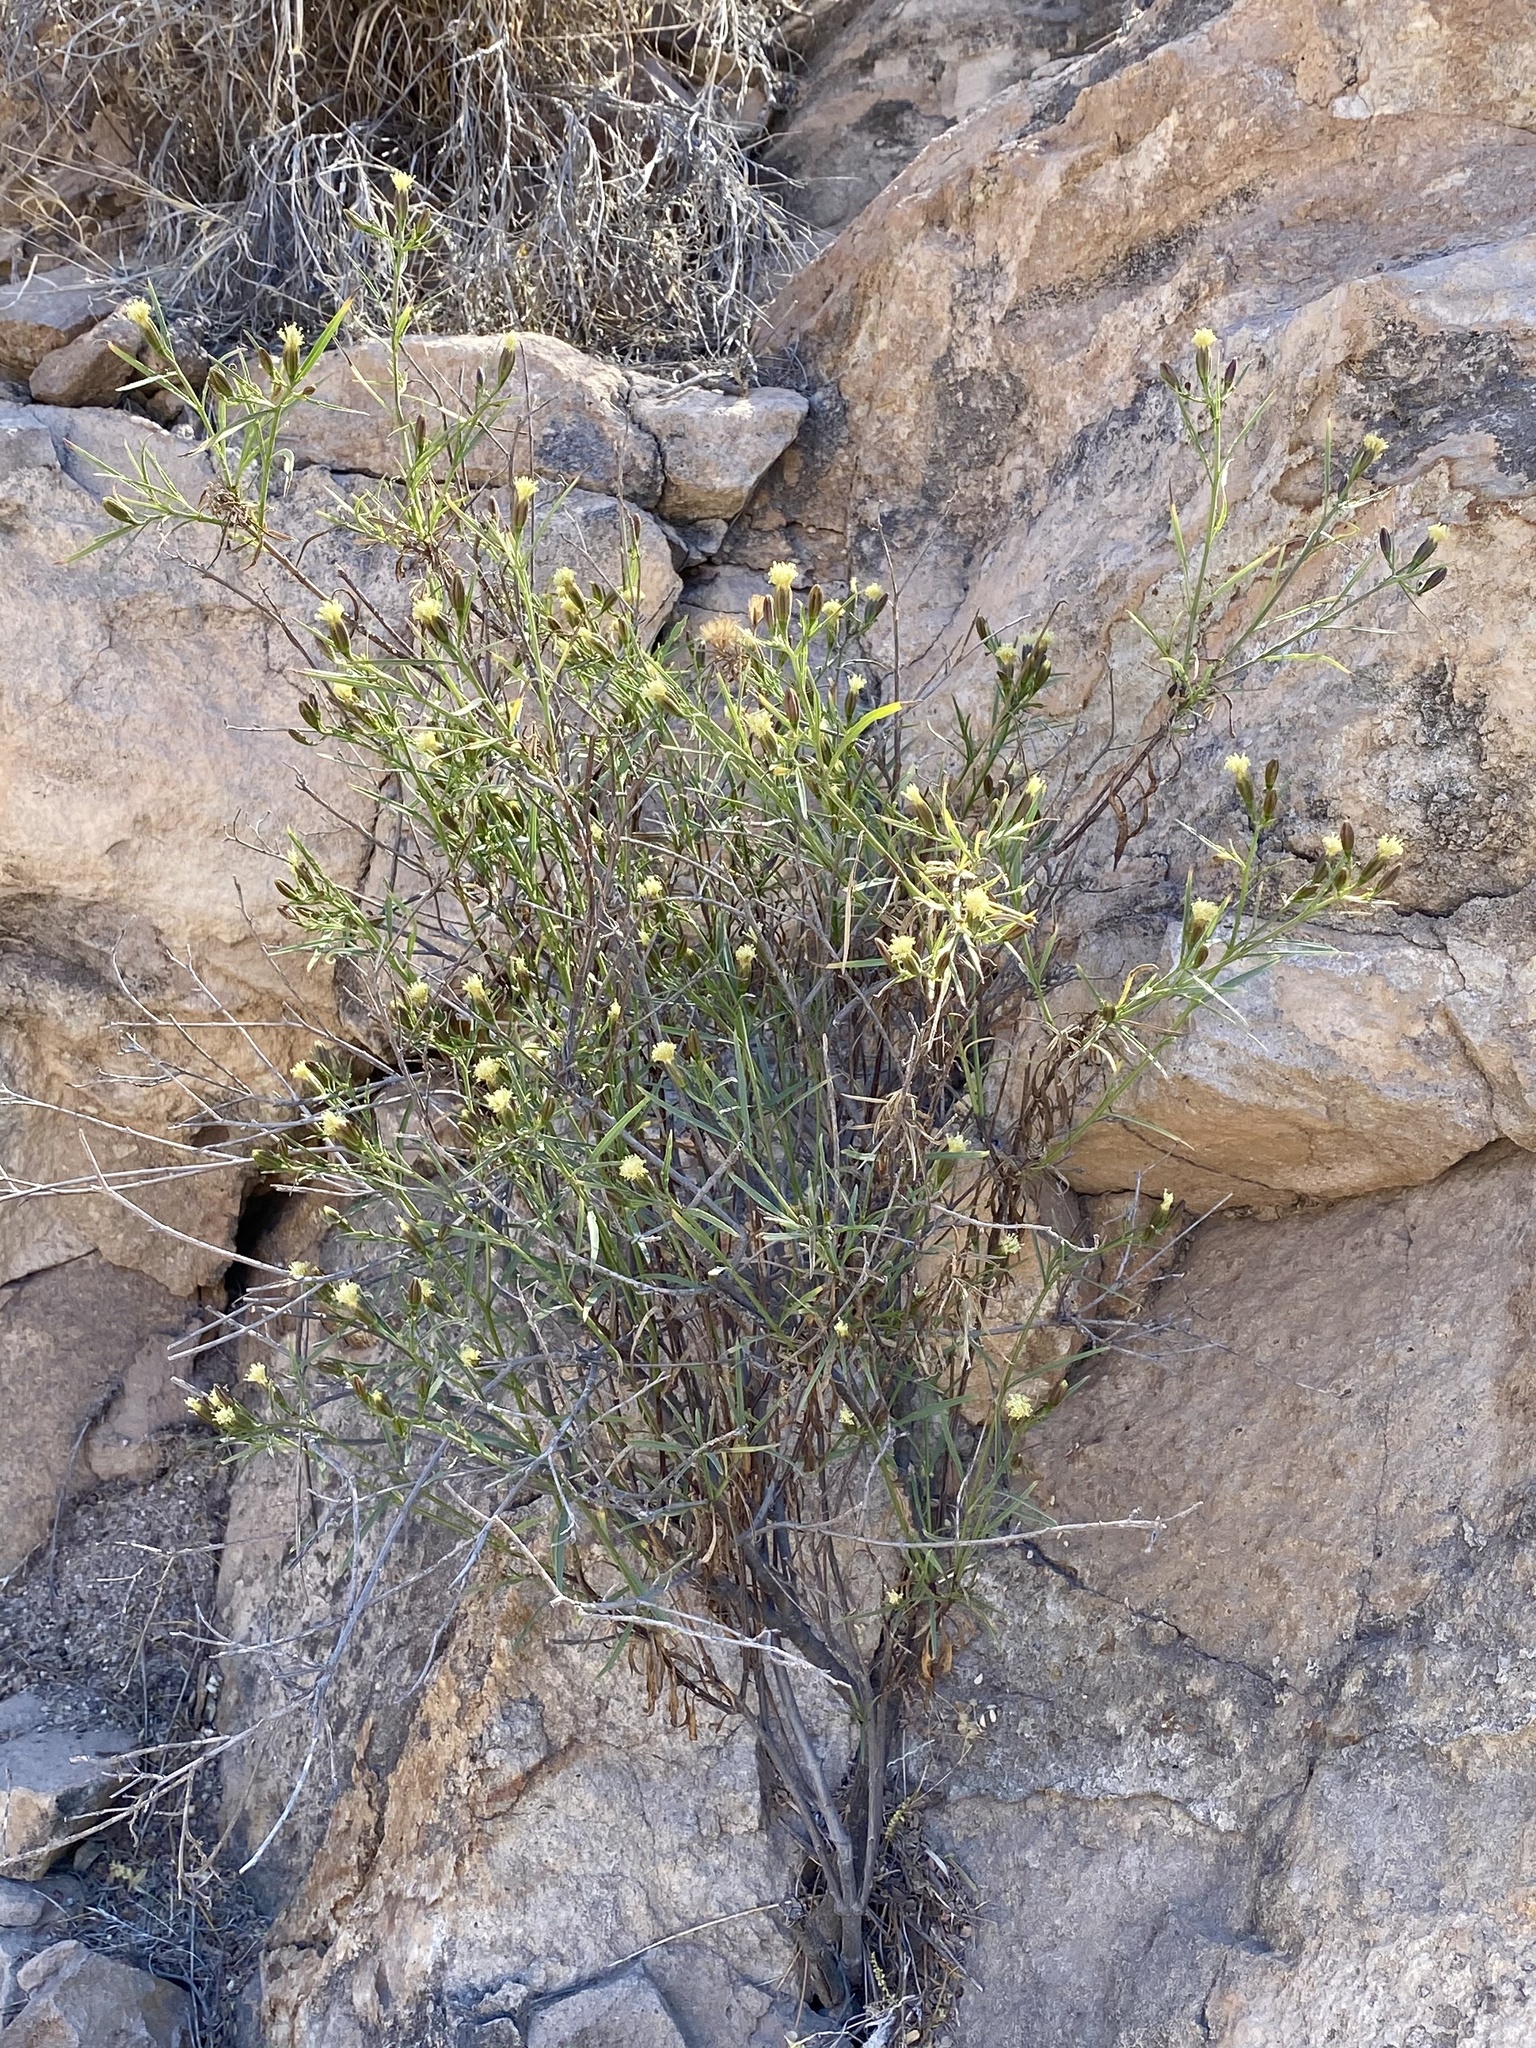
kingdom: Plantae
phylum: Tracheophyta
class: Magnoliopsida
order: Asterales
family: Asteraceae
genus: Porophyllum
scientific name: Porophyllum pausodynum
